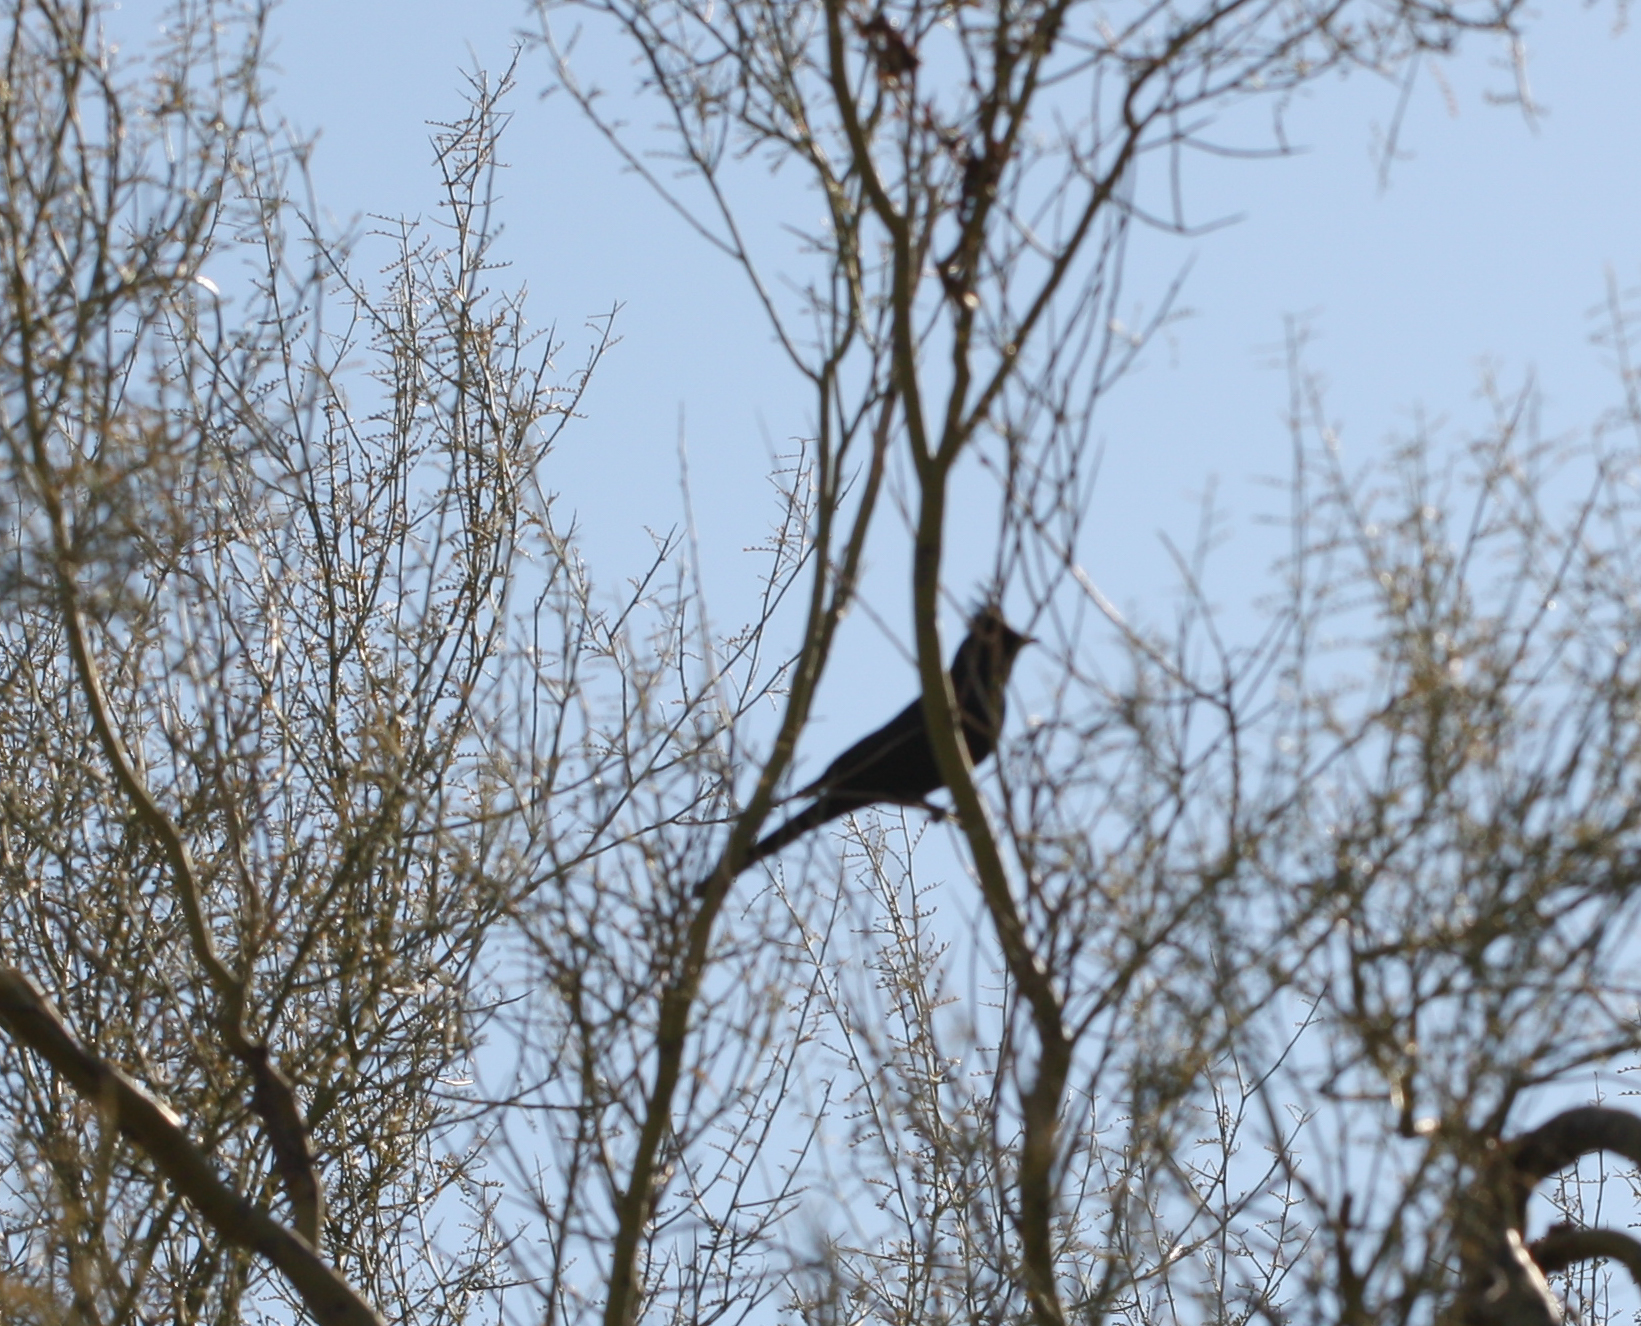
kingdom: Animalia
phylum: Chordata
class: Aves
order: Passeriformes
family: Ptilogonatidae
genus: Phainopepla
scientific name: Phainopepla nitens
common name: Phainopepla
